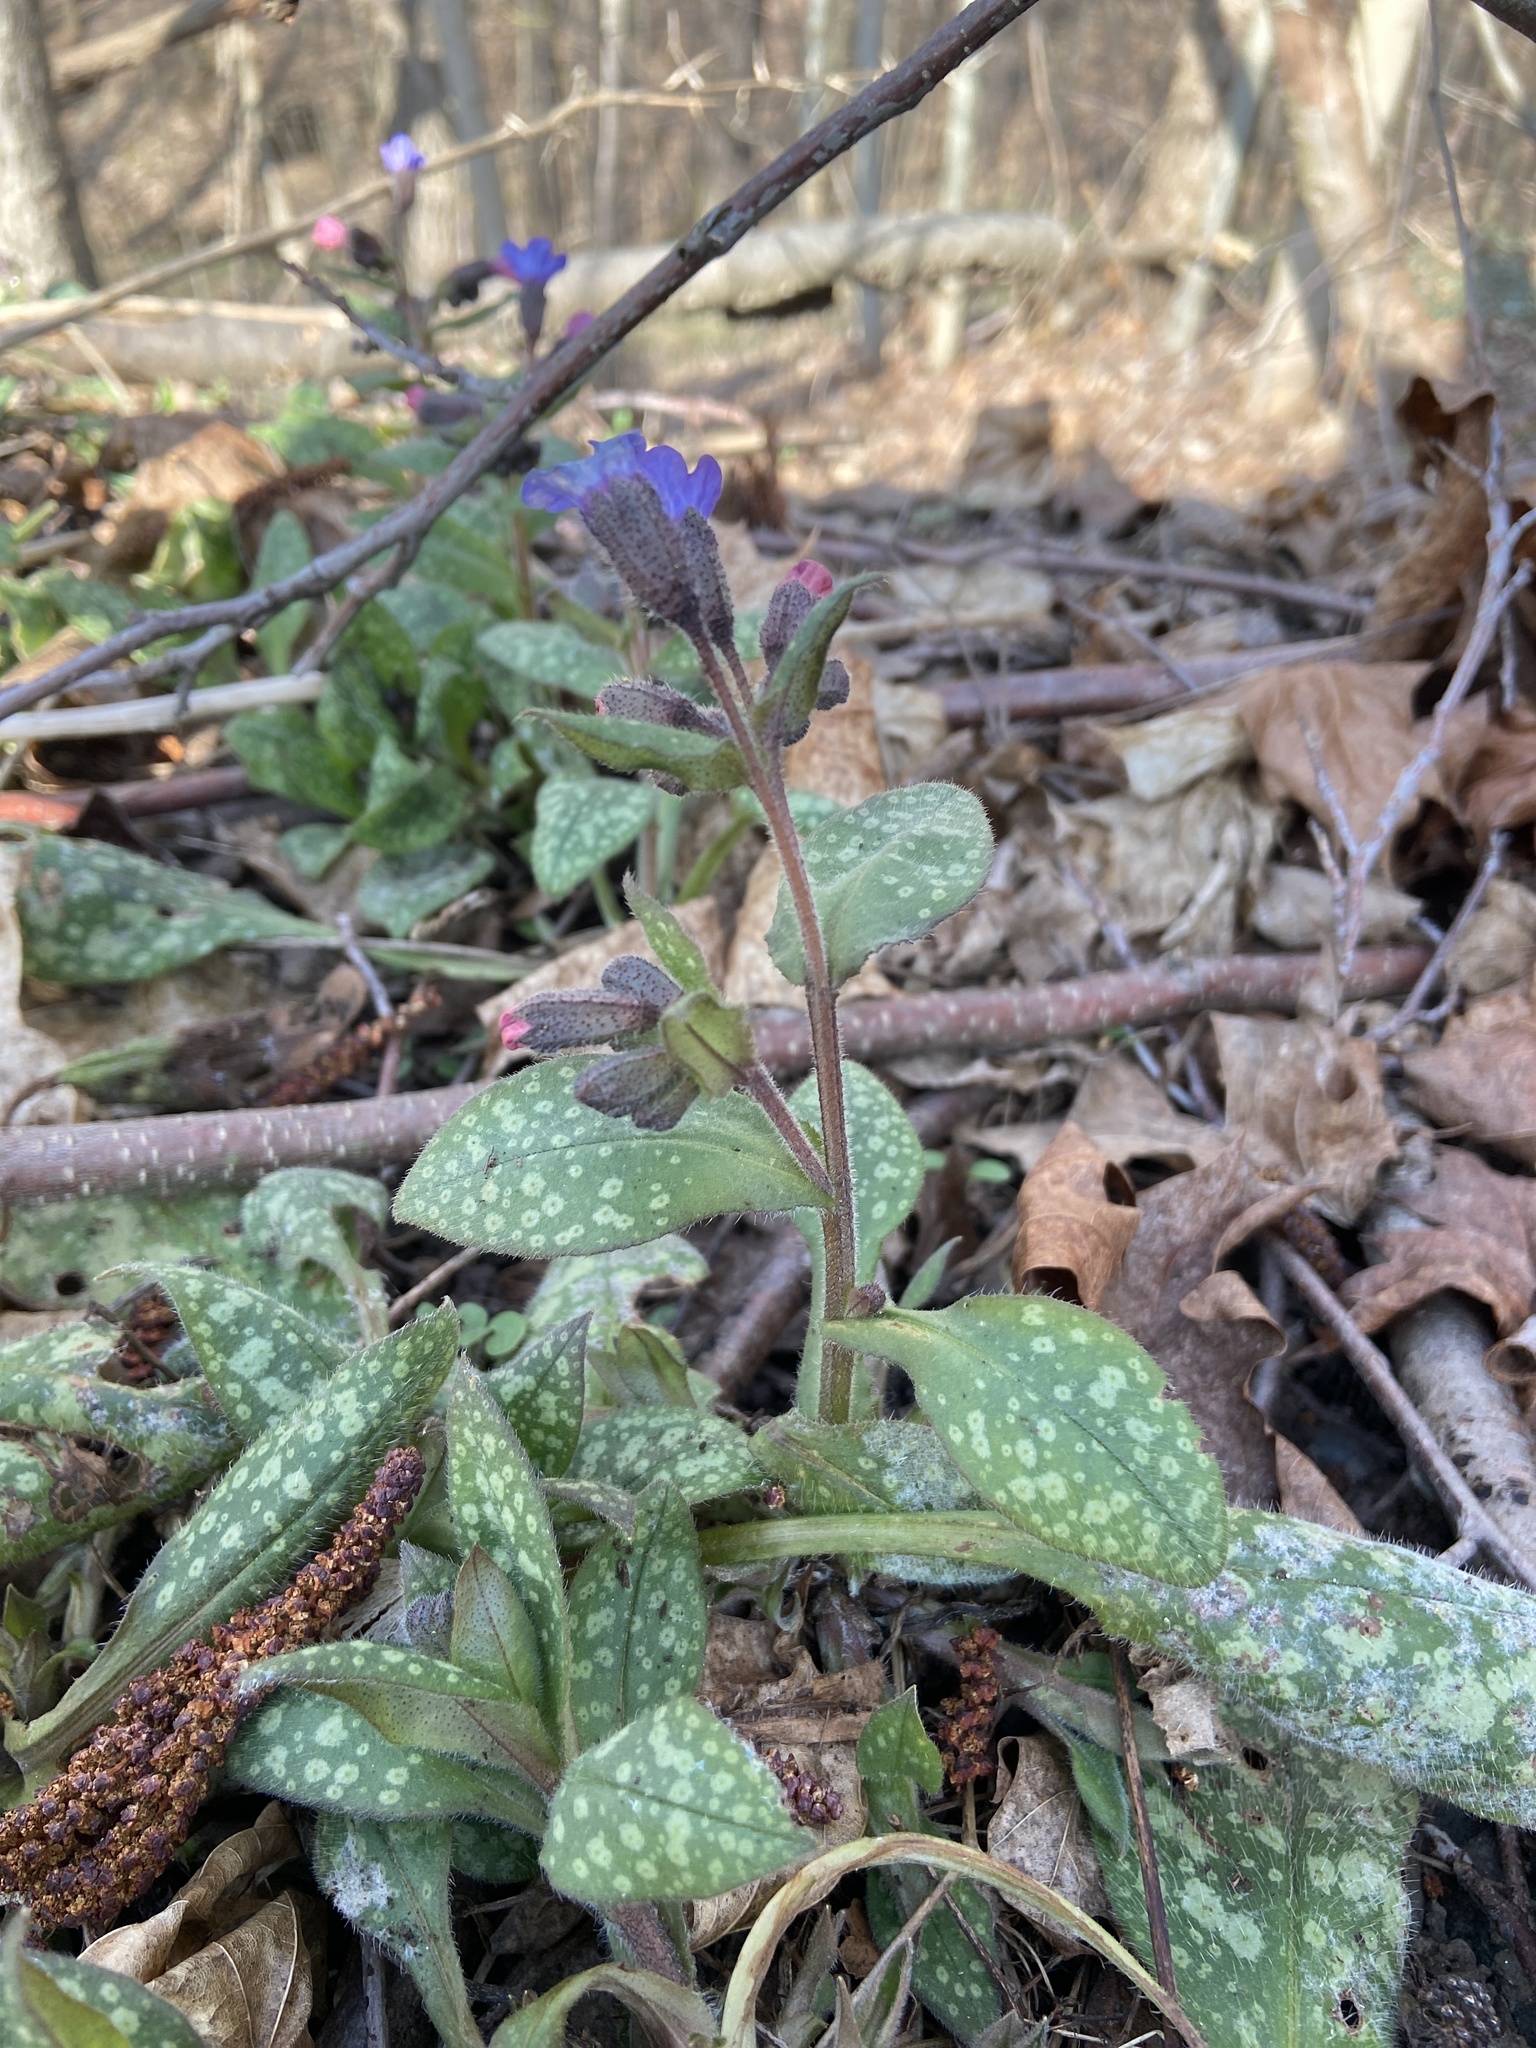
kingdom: Plantae
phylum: Tracheophyta
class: Magnoliopsida
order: Boraginales
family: Boraginaceae
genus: Pulmonaria
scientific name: Pulmonaria officinalis
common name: Lungwort
